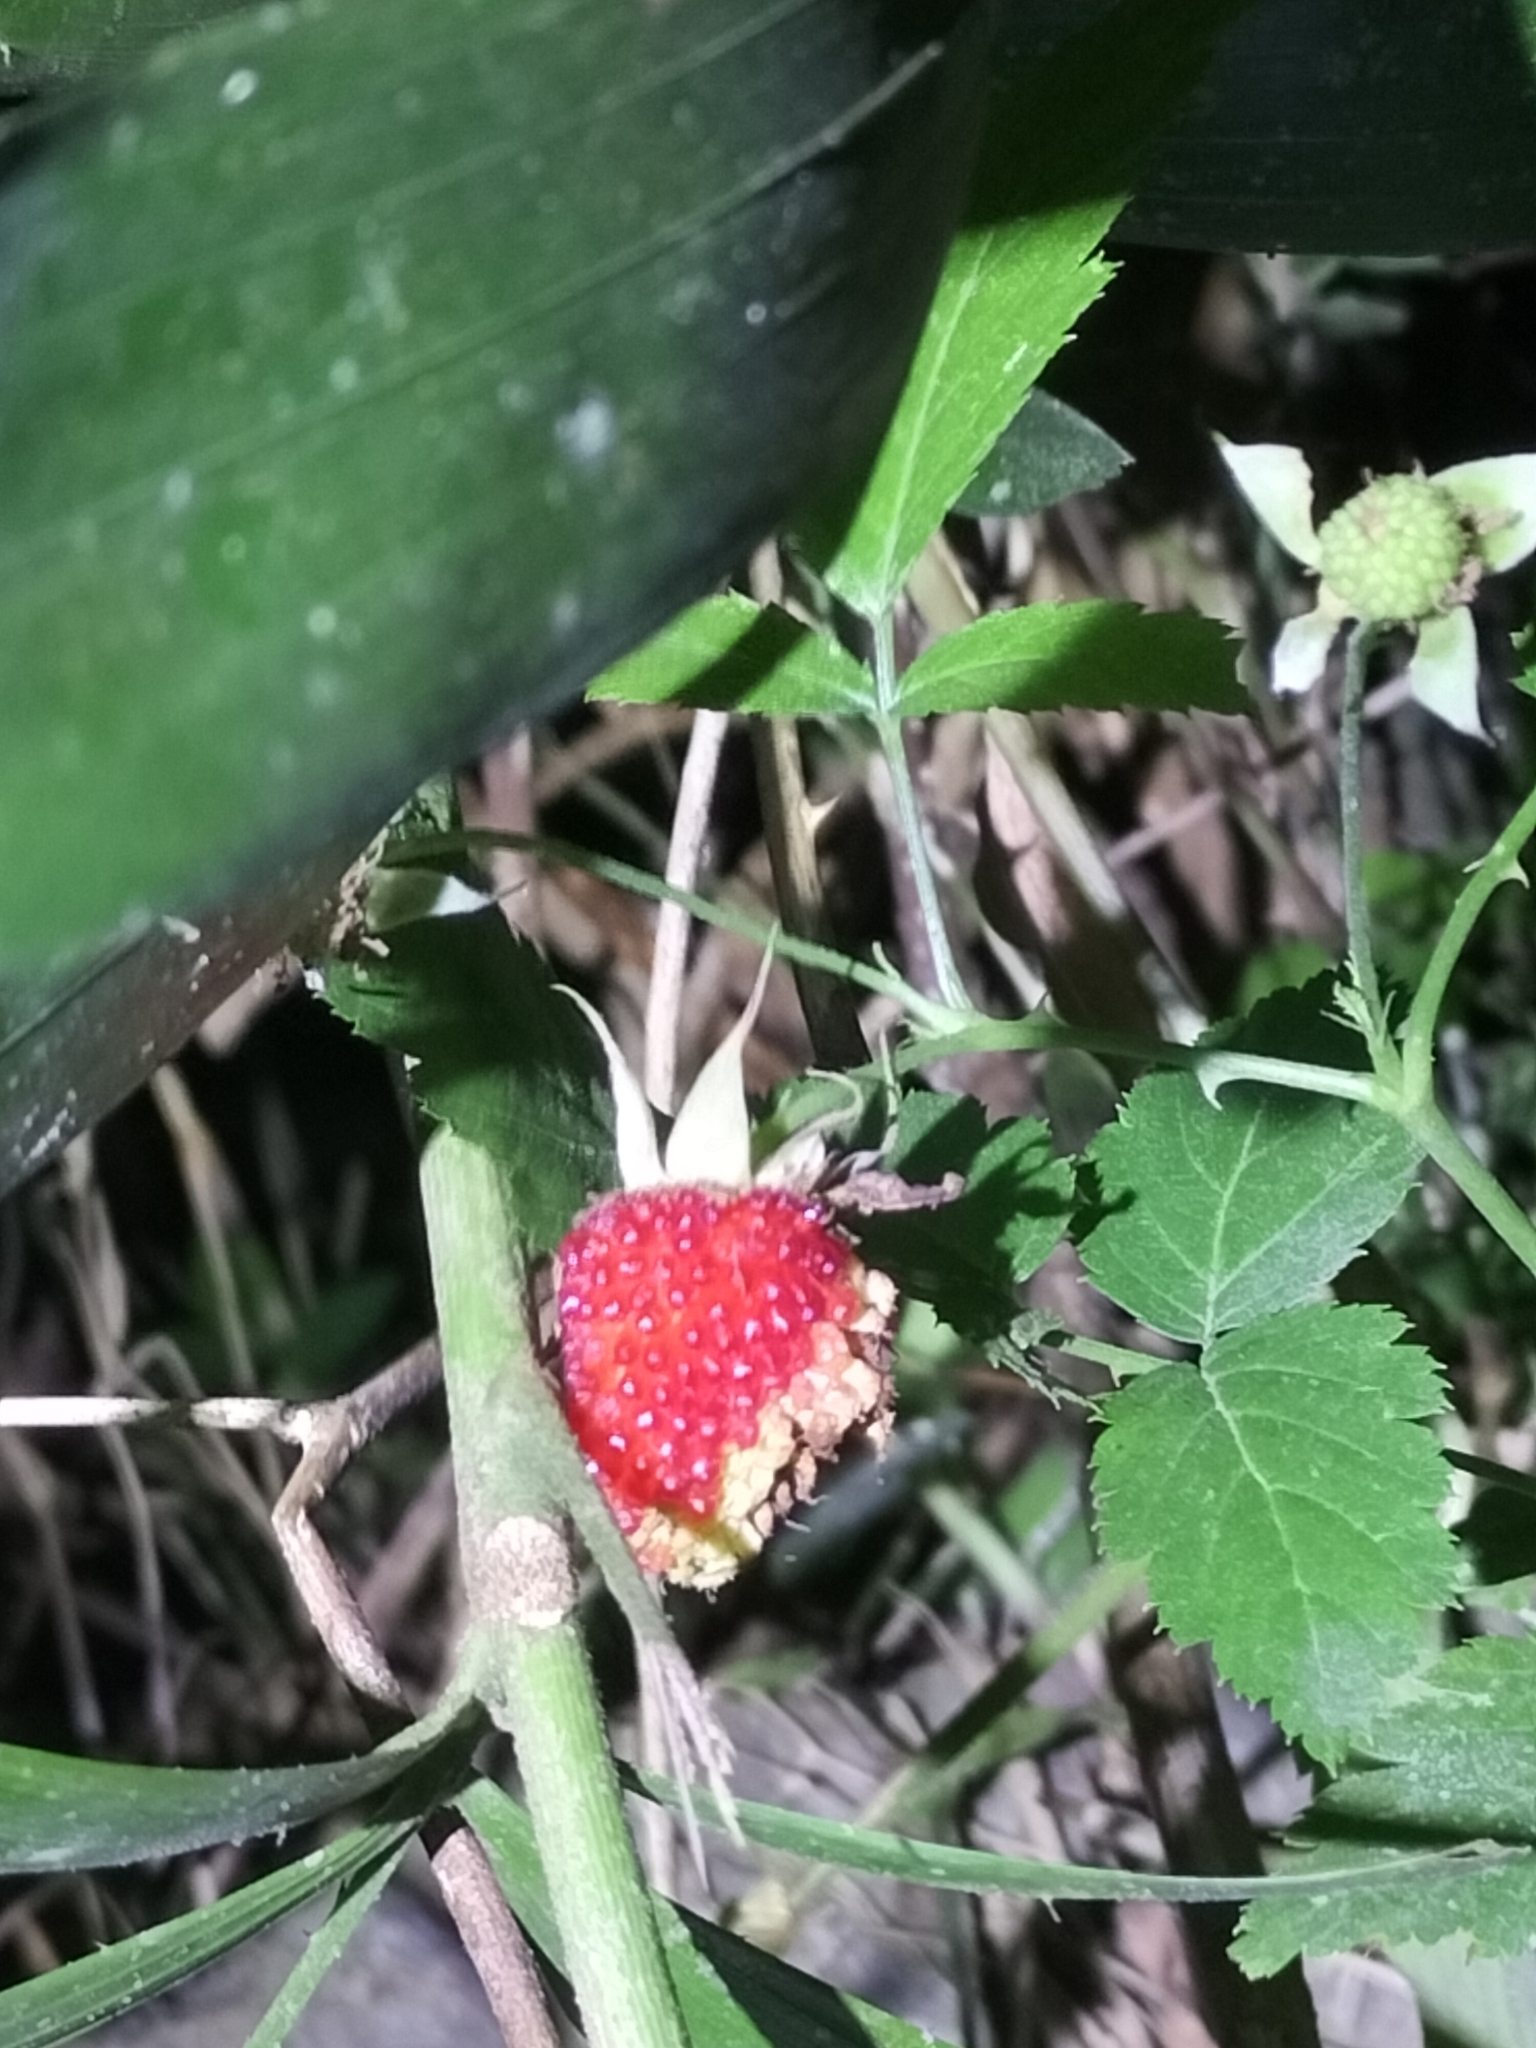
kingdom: Plantae
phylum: Tracheophyta
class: Magnoliopsida
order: Rosales
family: Rosaceae
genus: Rubus
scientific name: Rubus queenslandicus
